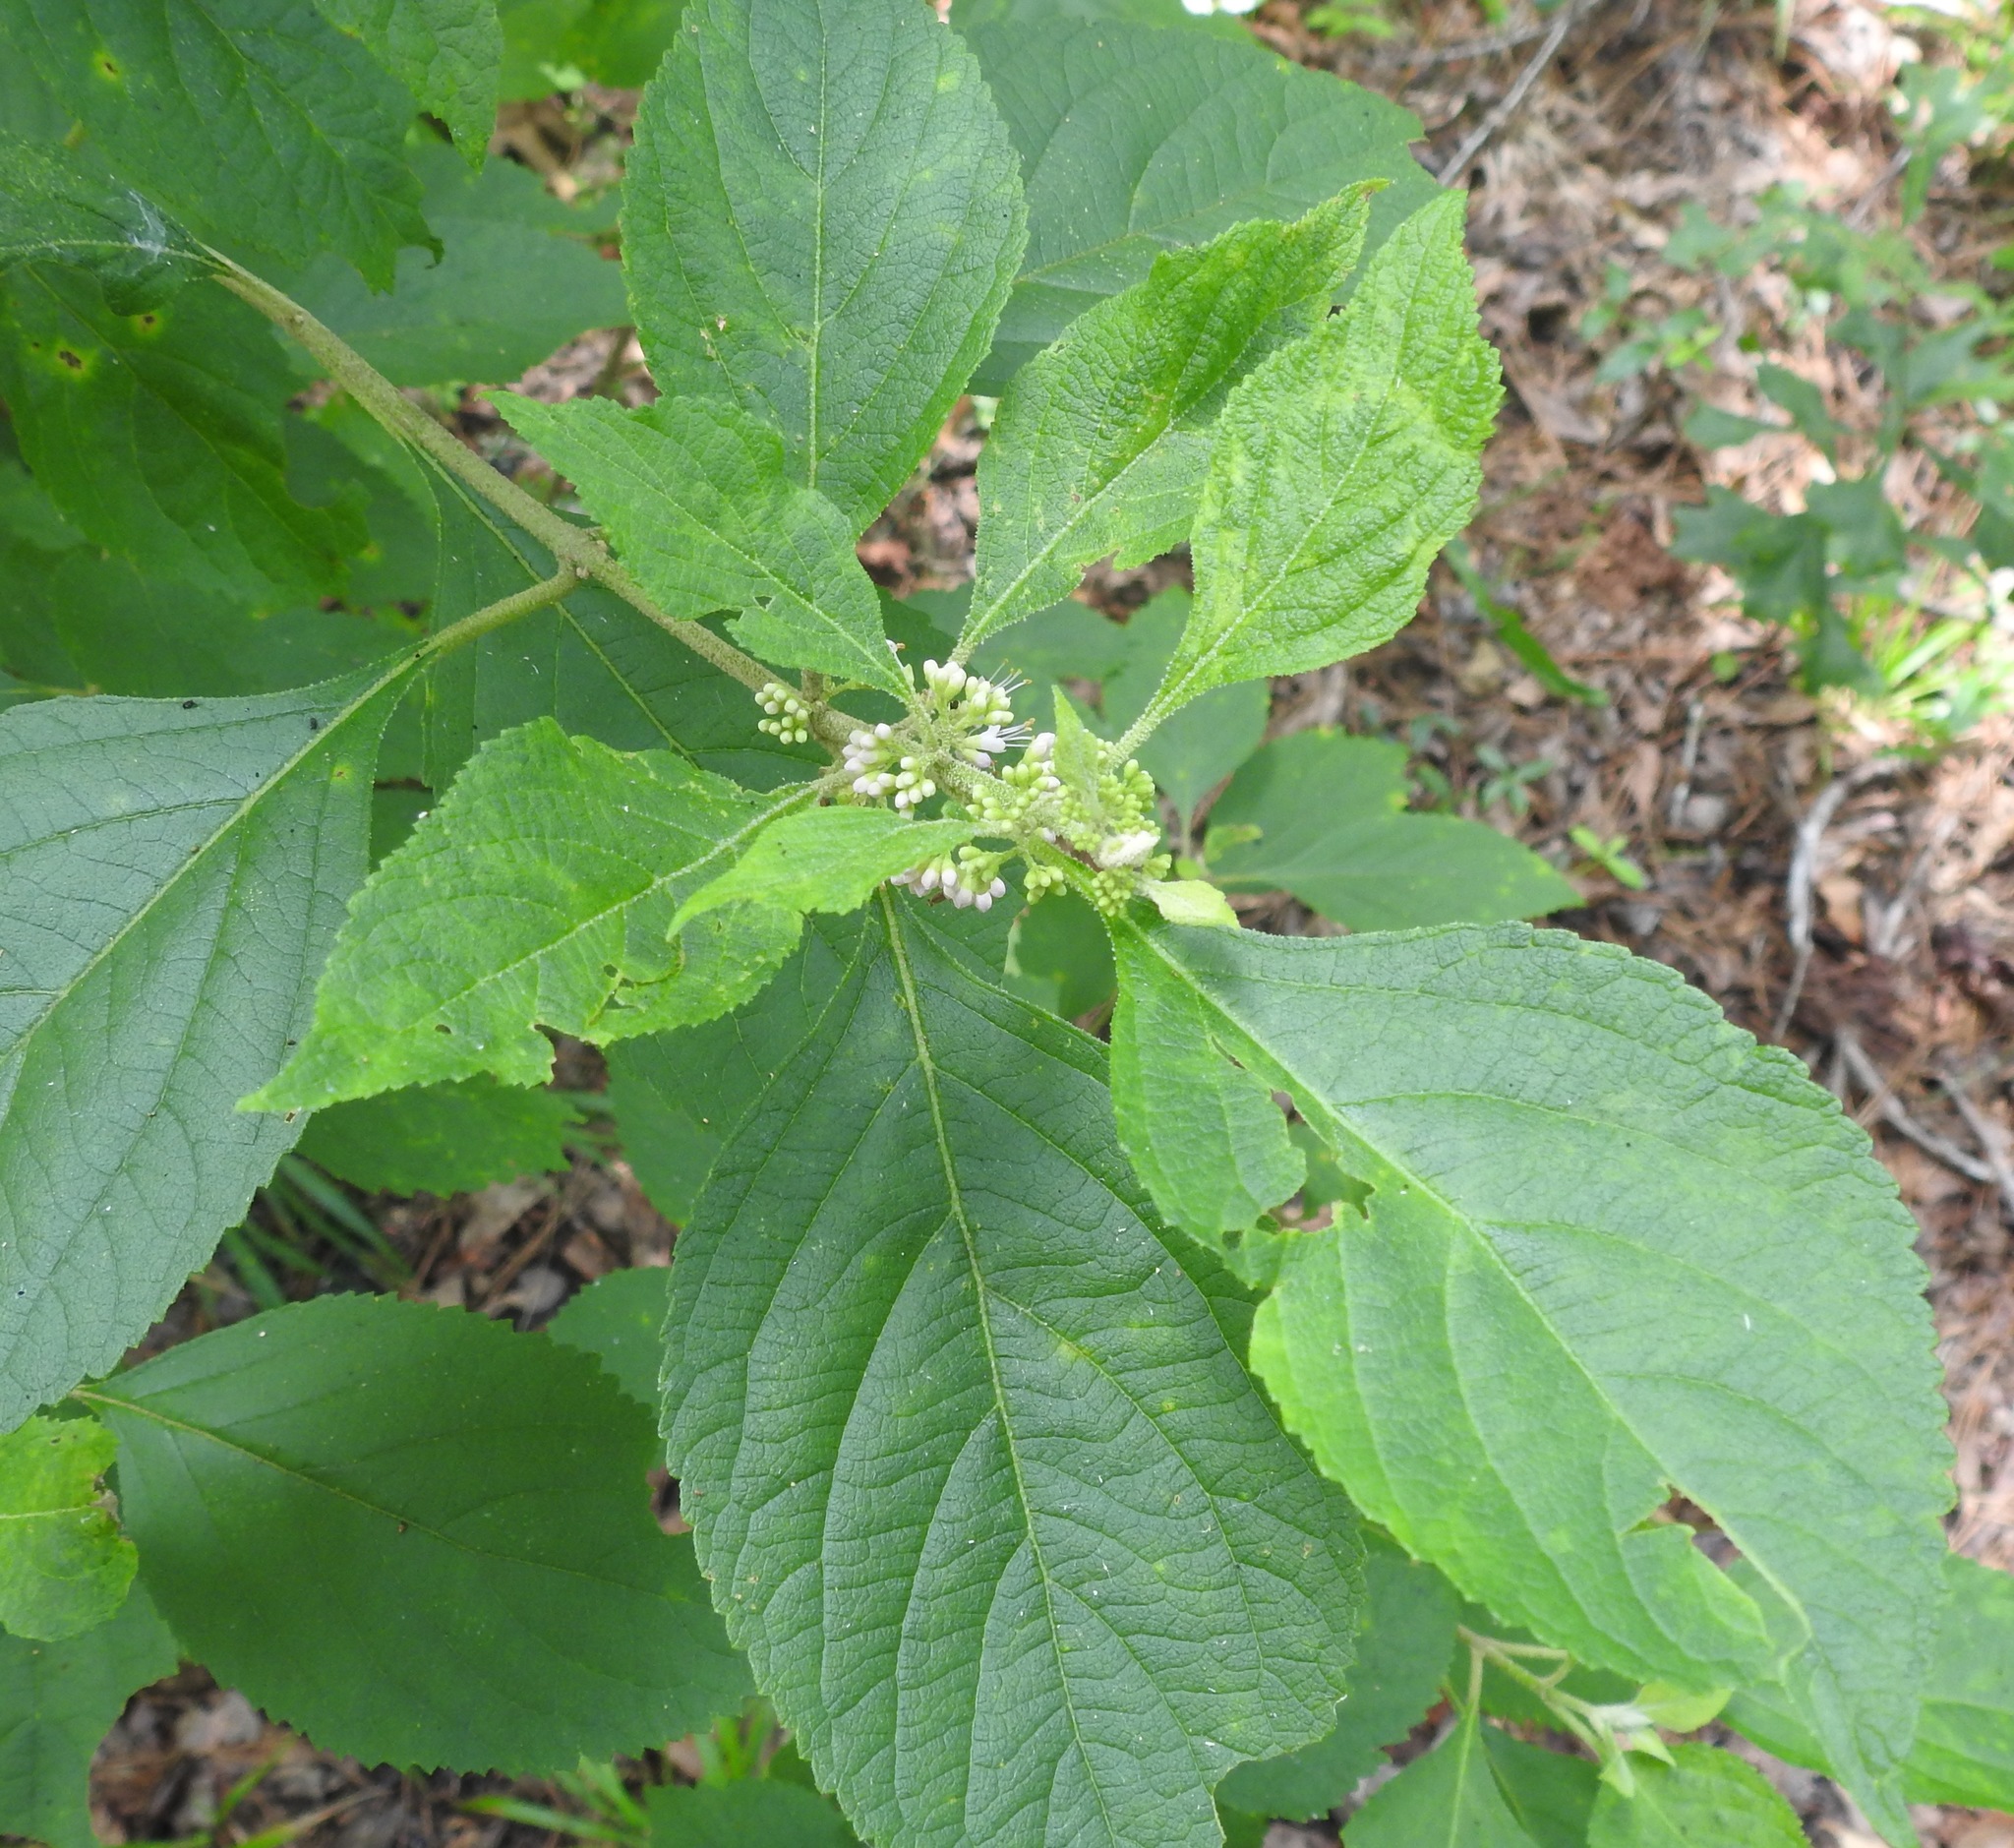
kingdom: Plantae
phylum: Tracheophyta
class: Magnoliopsida
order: Lamiales
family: Lamiaceae
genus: Callicarpa
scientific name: Callicarpa americana
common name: American beautyberry
